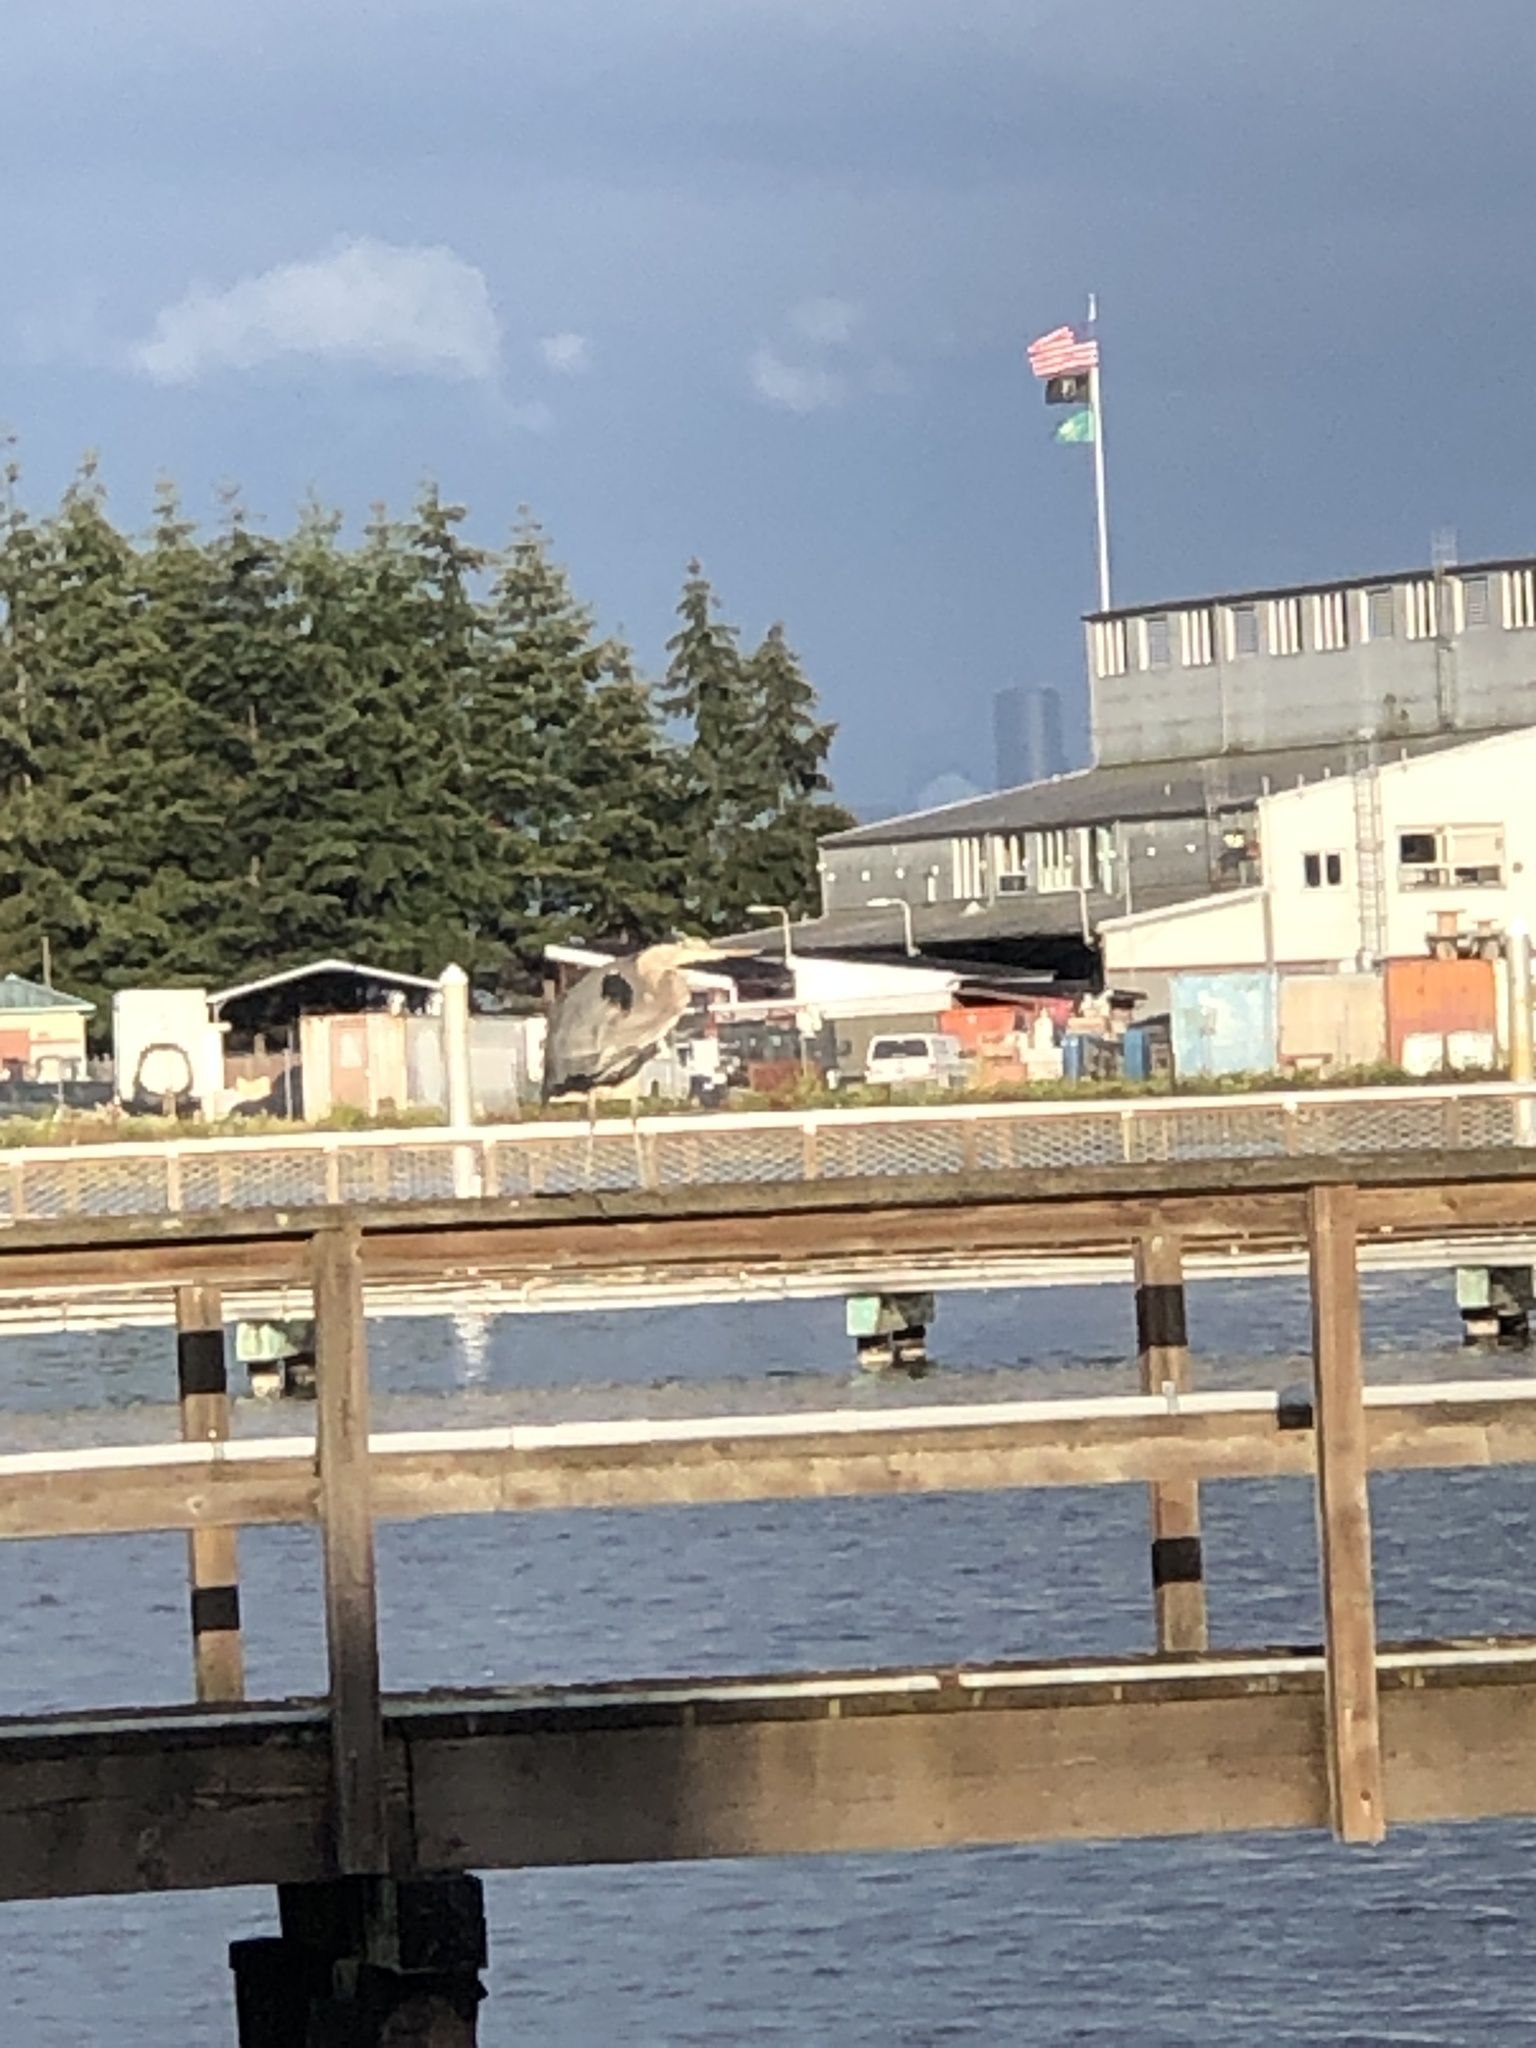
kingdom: Animalia
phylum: Chordata
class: Aves
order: Pelecaniformes
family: Ardeidae
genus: Ardea
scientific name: Ardea herodias
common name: Great blue heron
